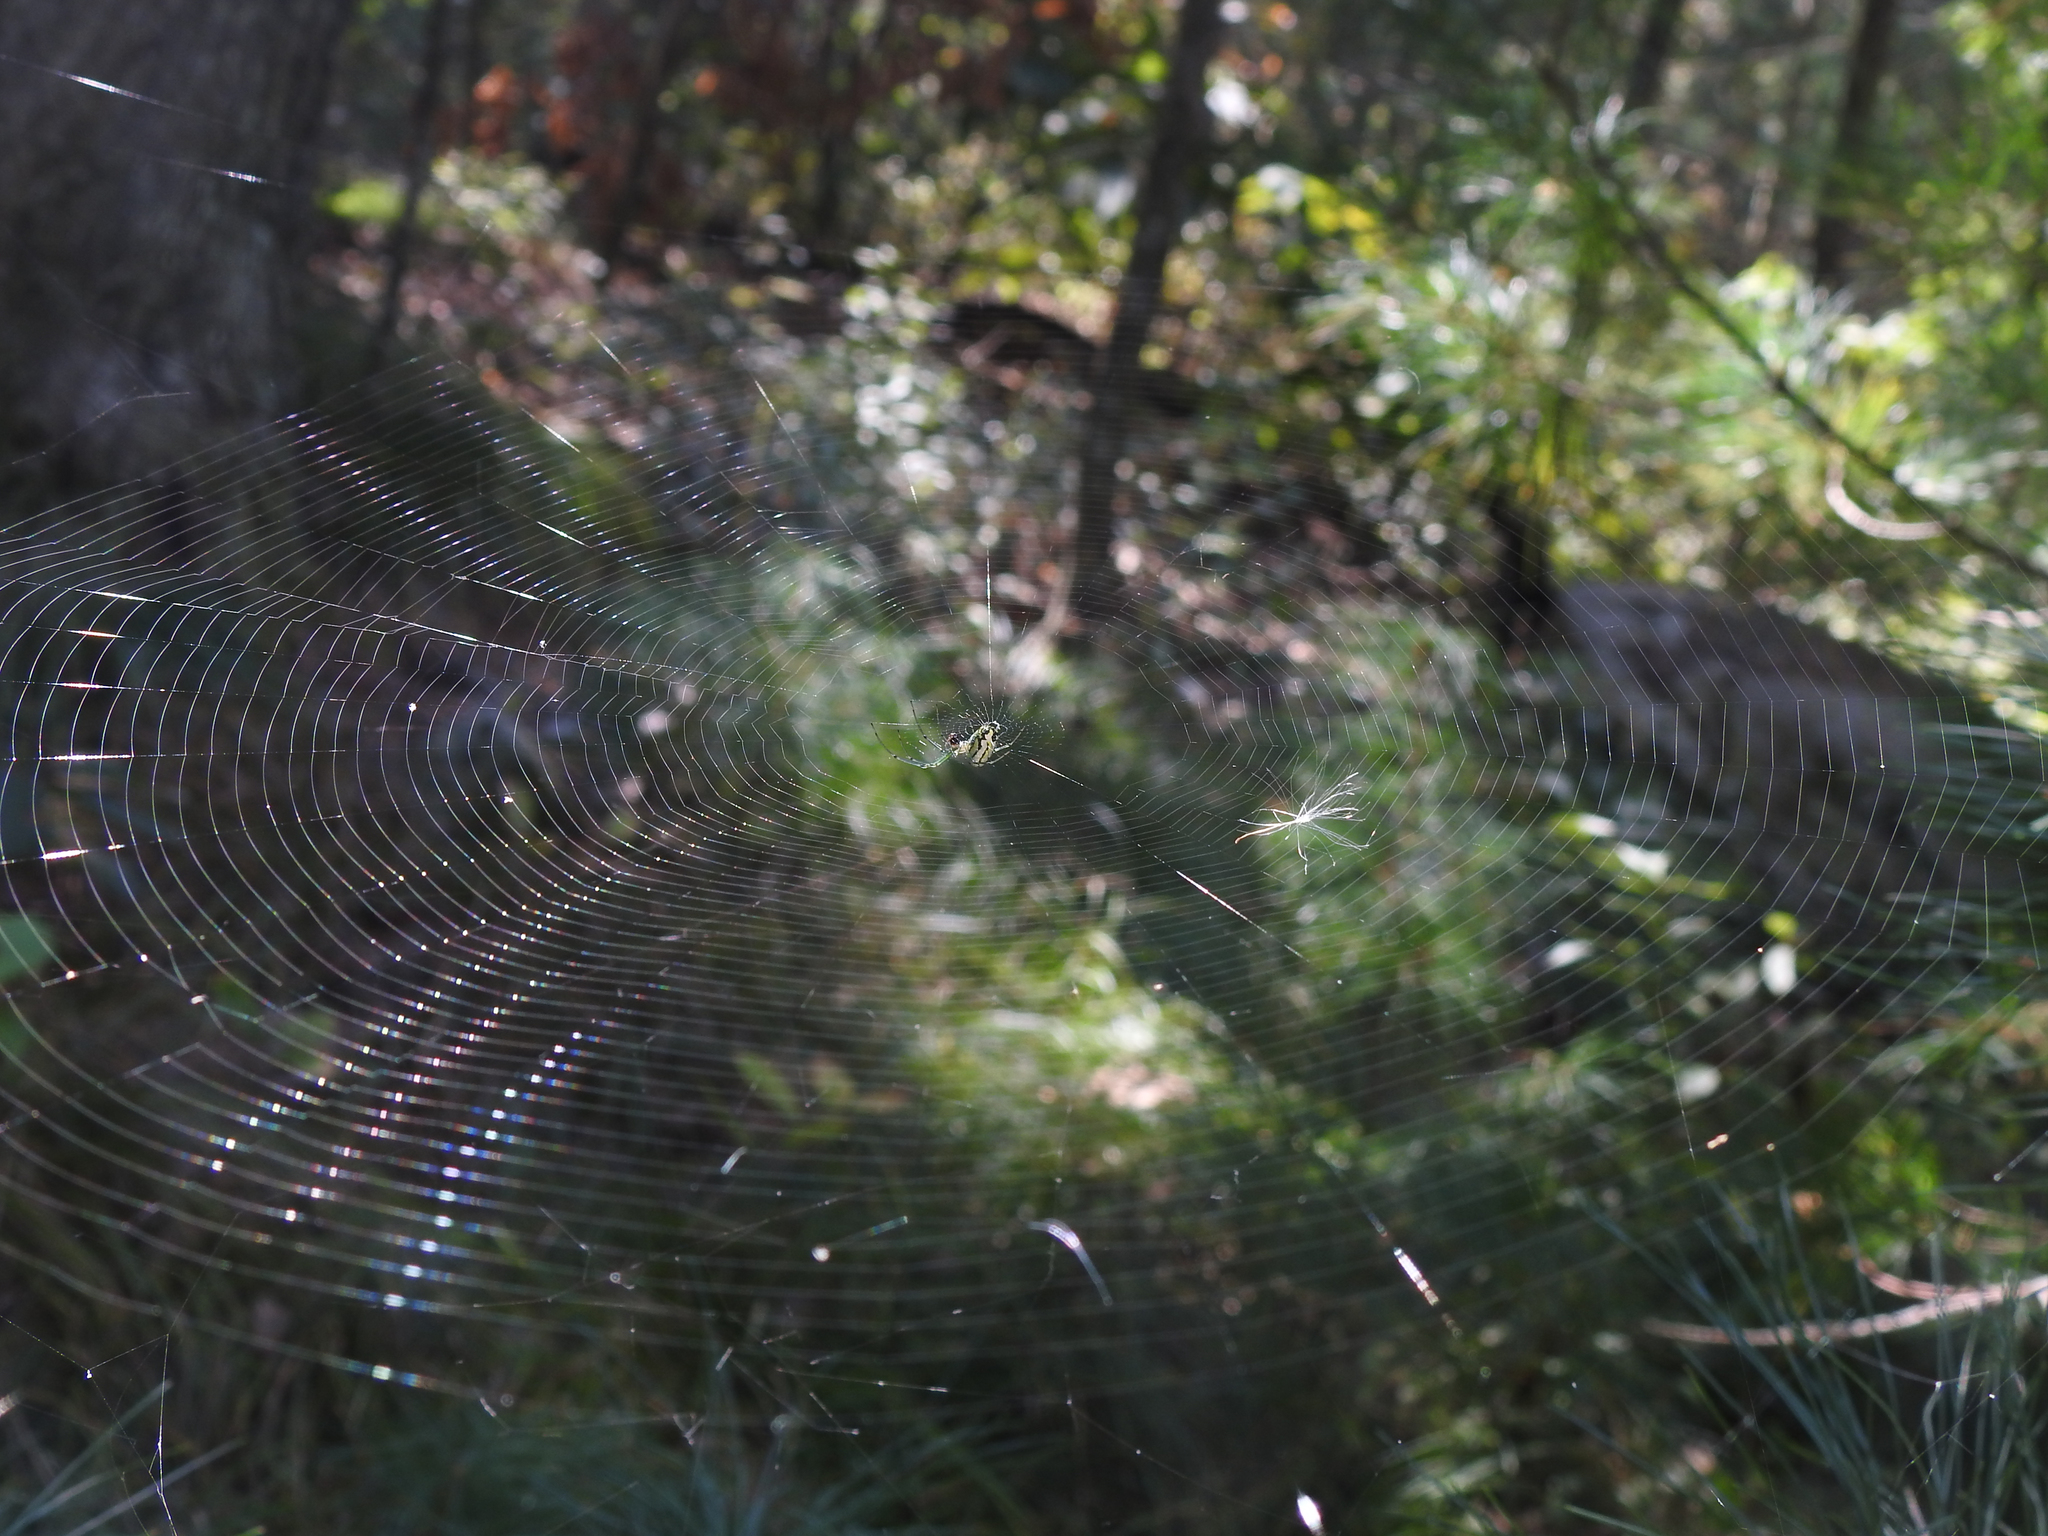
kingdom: Animalia
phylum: Arthropoda
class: Arachnida
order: Araneae
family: Tetragnathidae
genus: Leucauge
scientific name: Leucauge venusta
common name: Longjawed orb weavers
